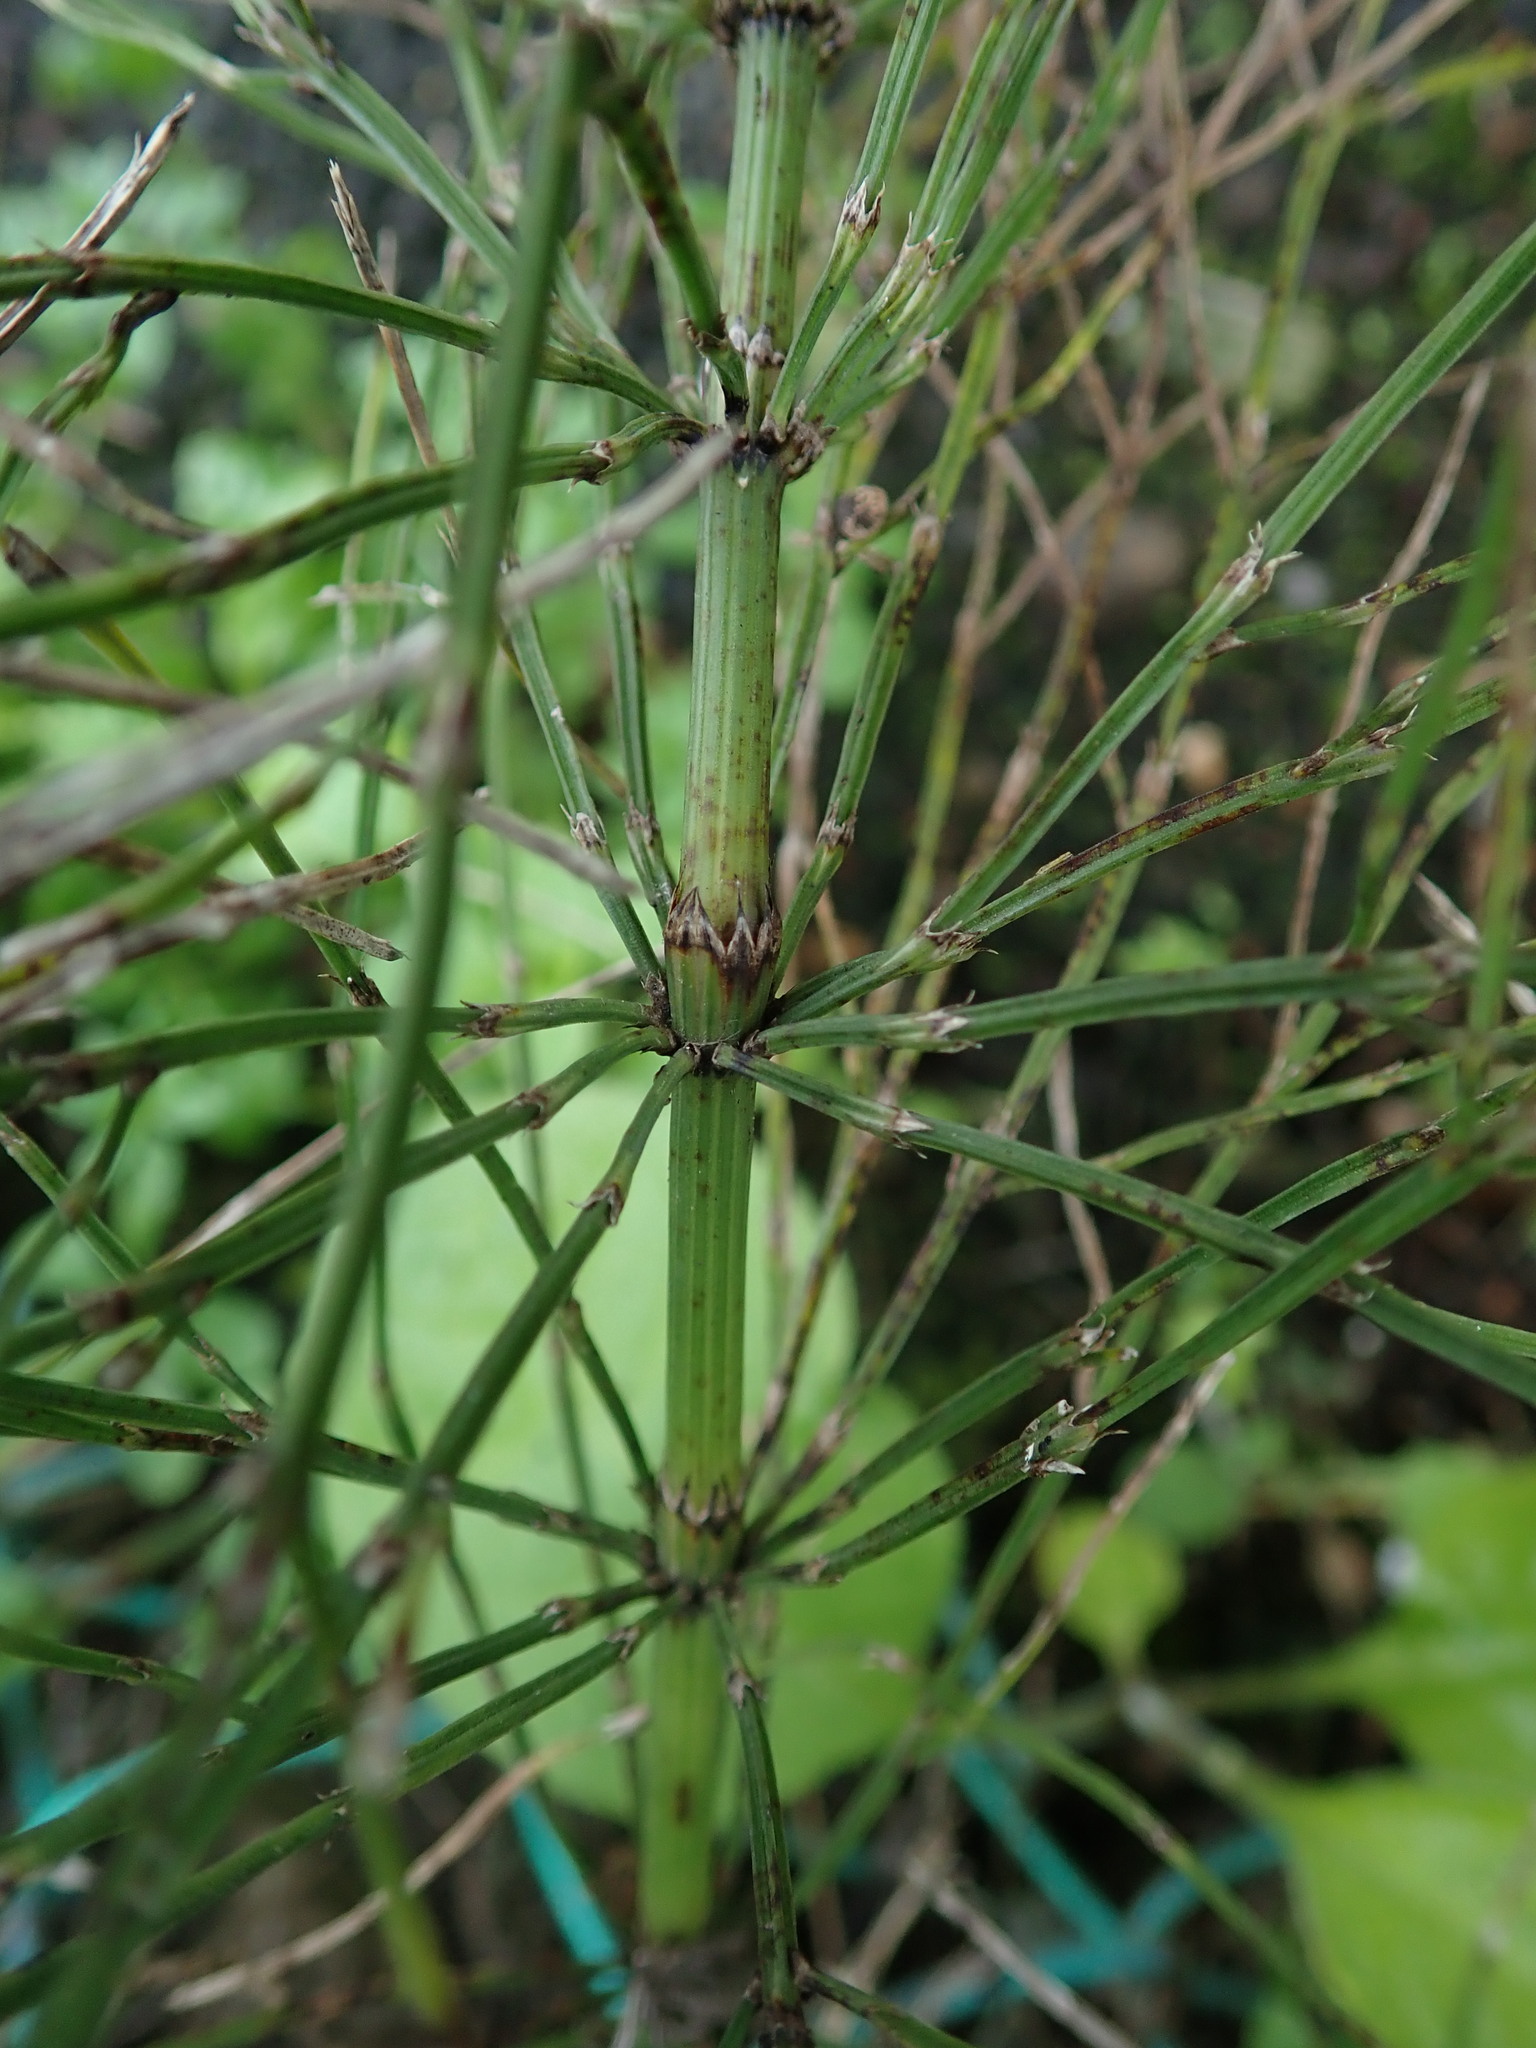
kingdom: Plantae
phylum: Tracheophyta
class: Polypodiopsida
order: Equisetales
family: Equisetaceae
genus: Equisetum
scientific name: Equisetum arvense
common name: Field horsetail
